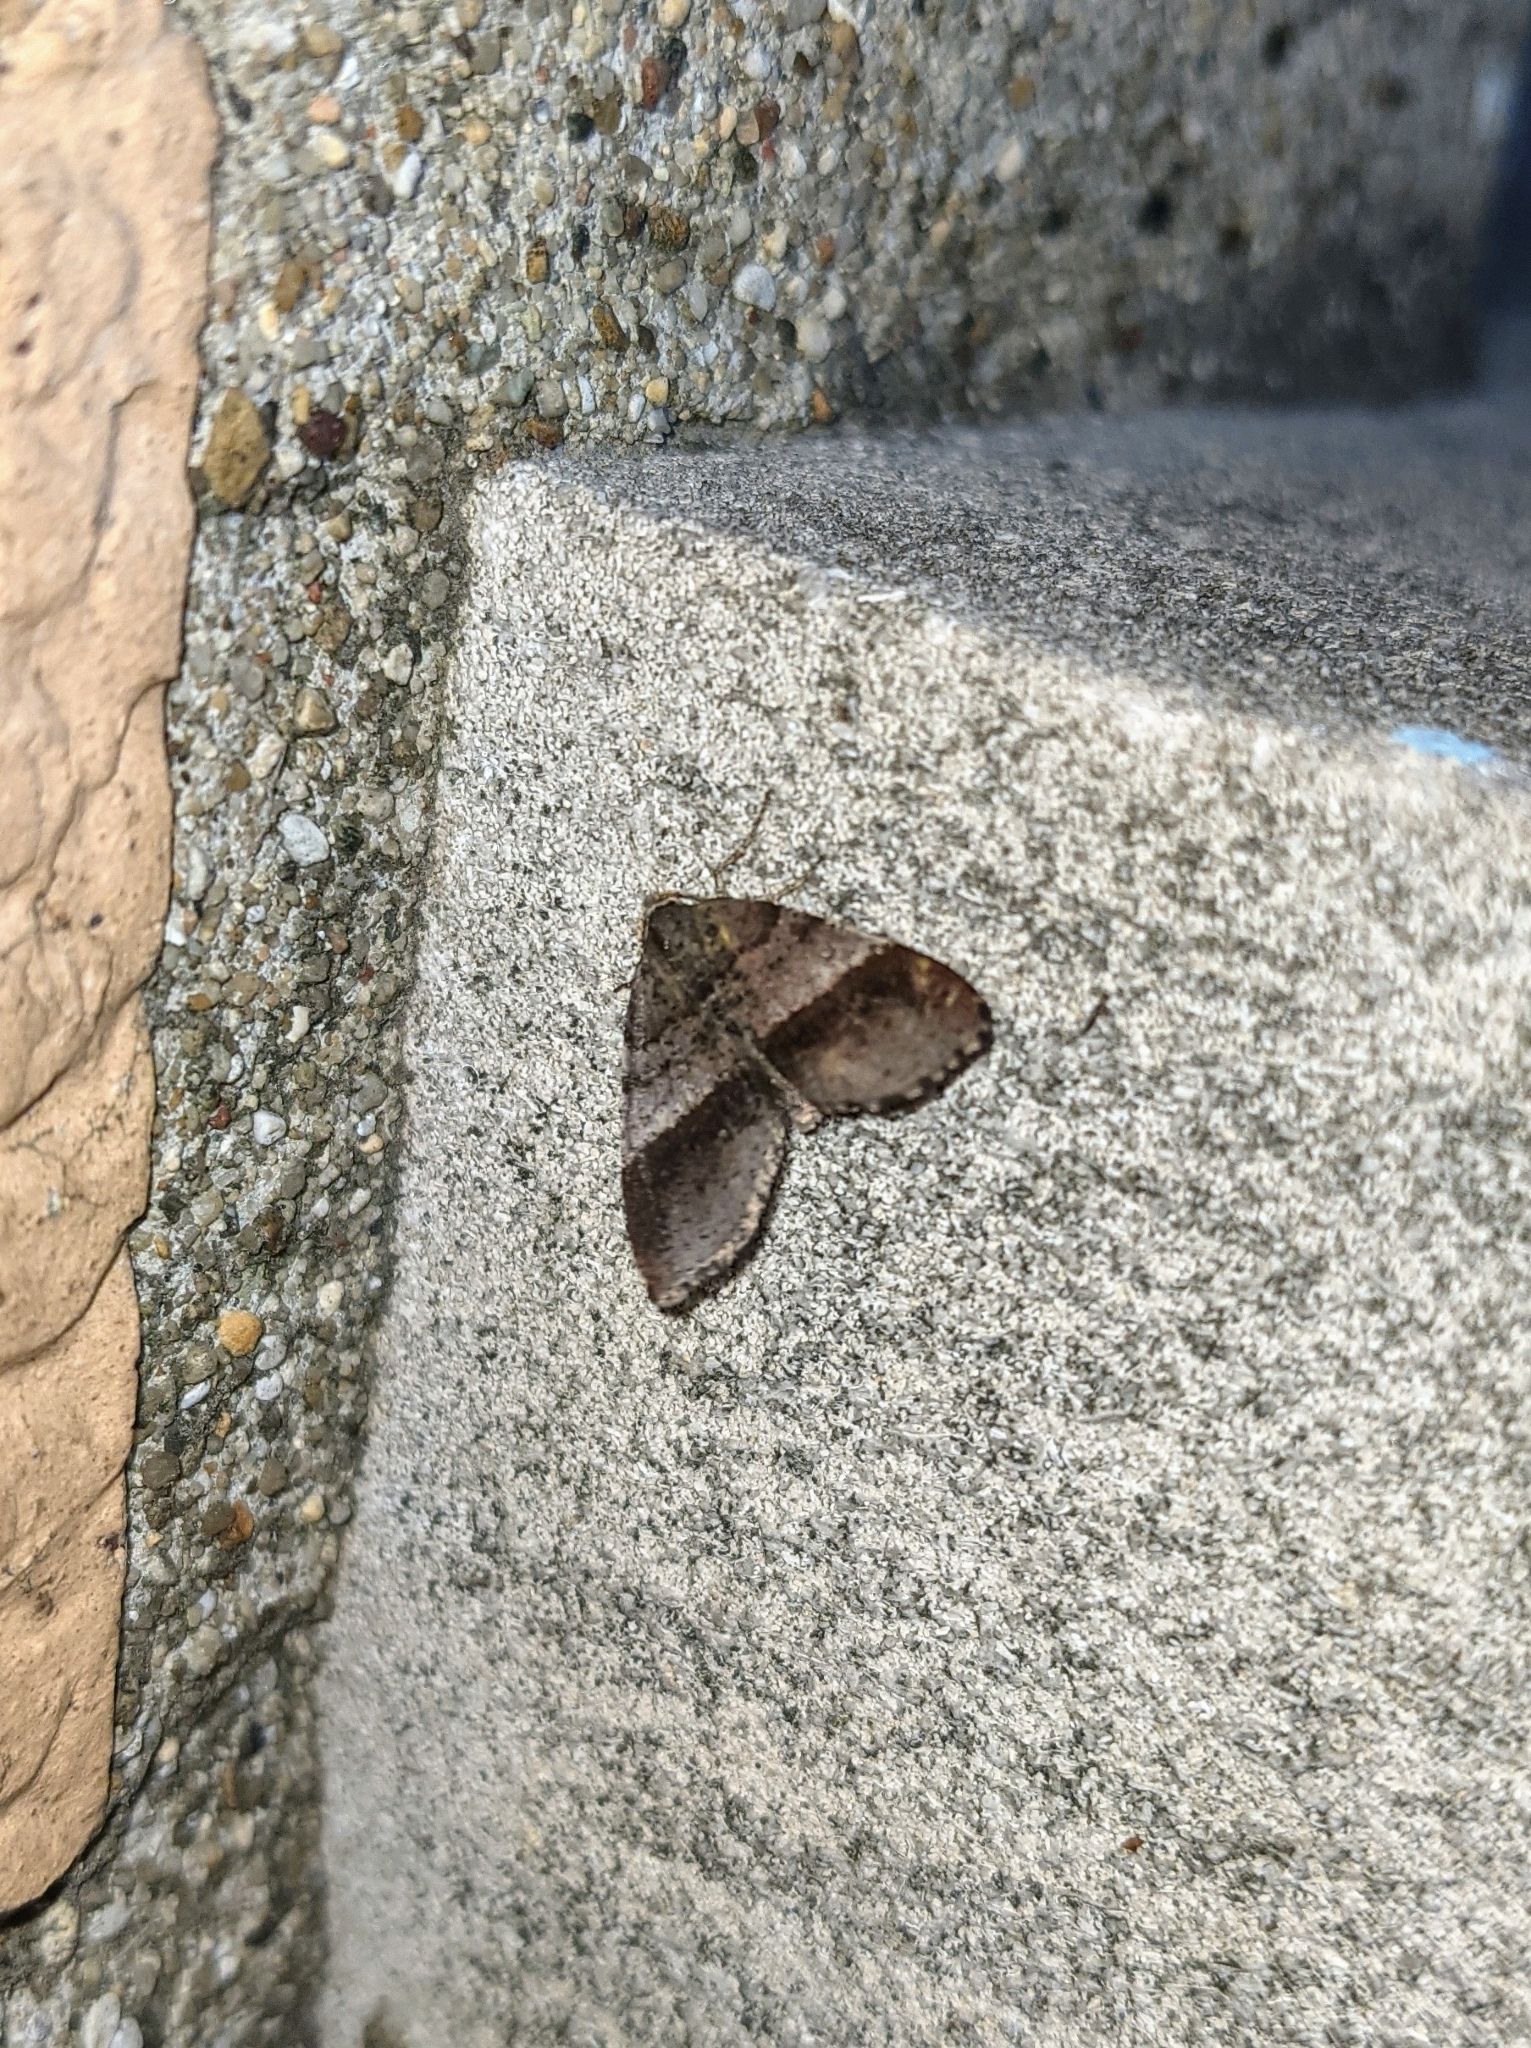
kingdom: Animalia
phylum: Arthropoda
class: Insecta
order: Lepidoptera
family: Geometridae
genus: Mellilla
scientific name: Mellilla xanthometata
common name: Orange wing moth
